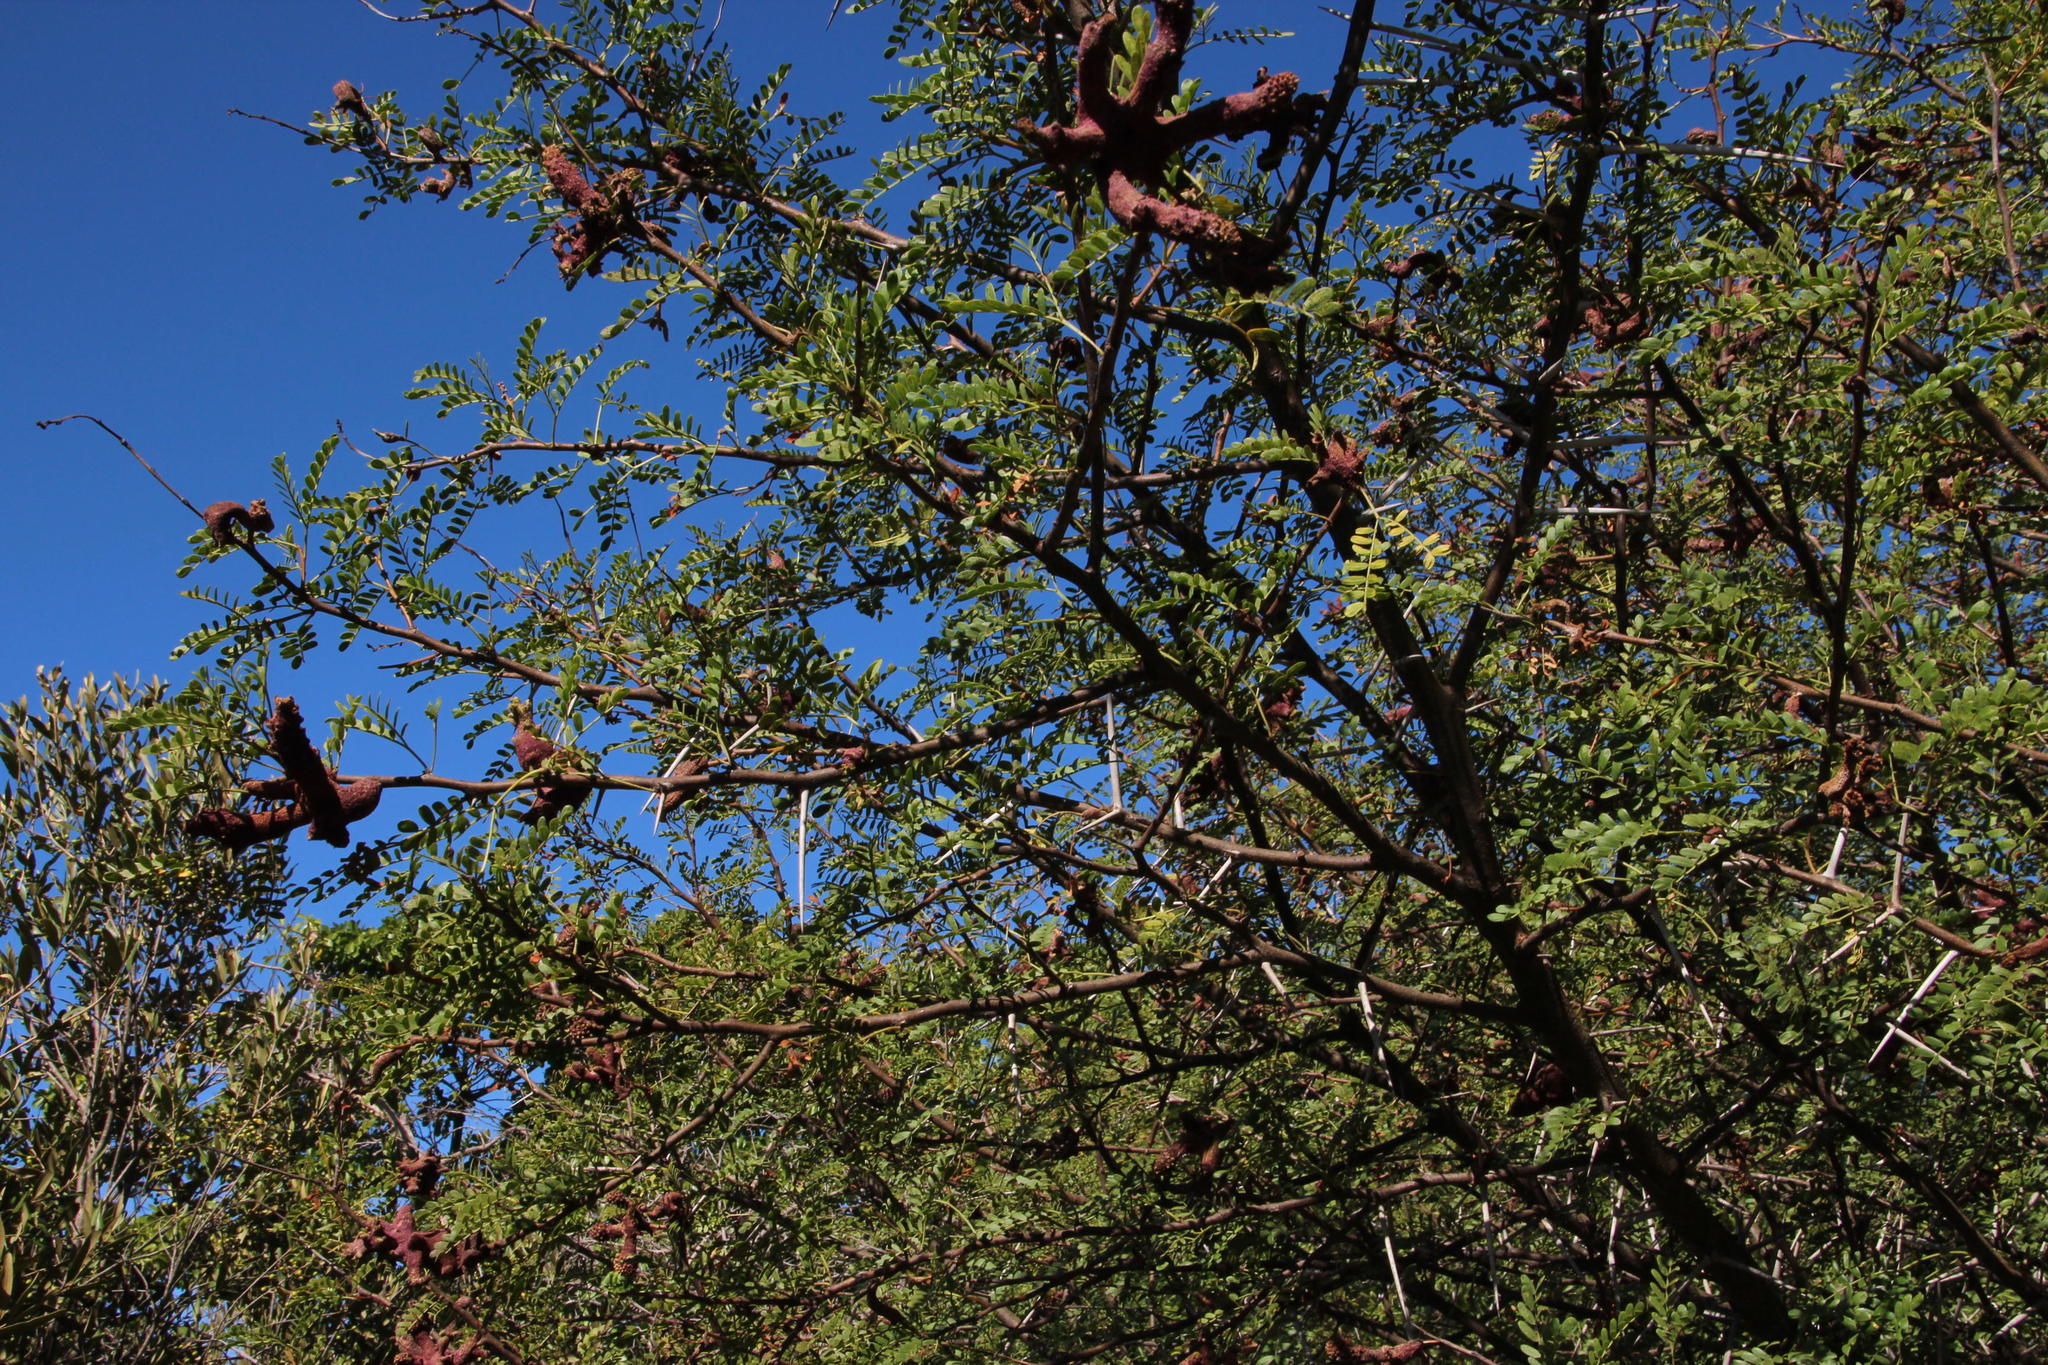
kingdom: Fungi
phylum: Basidiomycota
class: Pucciniomycetes
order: Pucciniales
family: Raveneliaceae
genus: Cephalotelium
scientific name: Cephalotelium macowanianum
